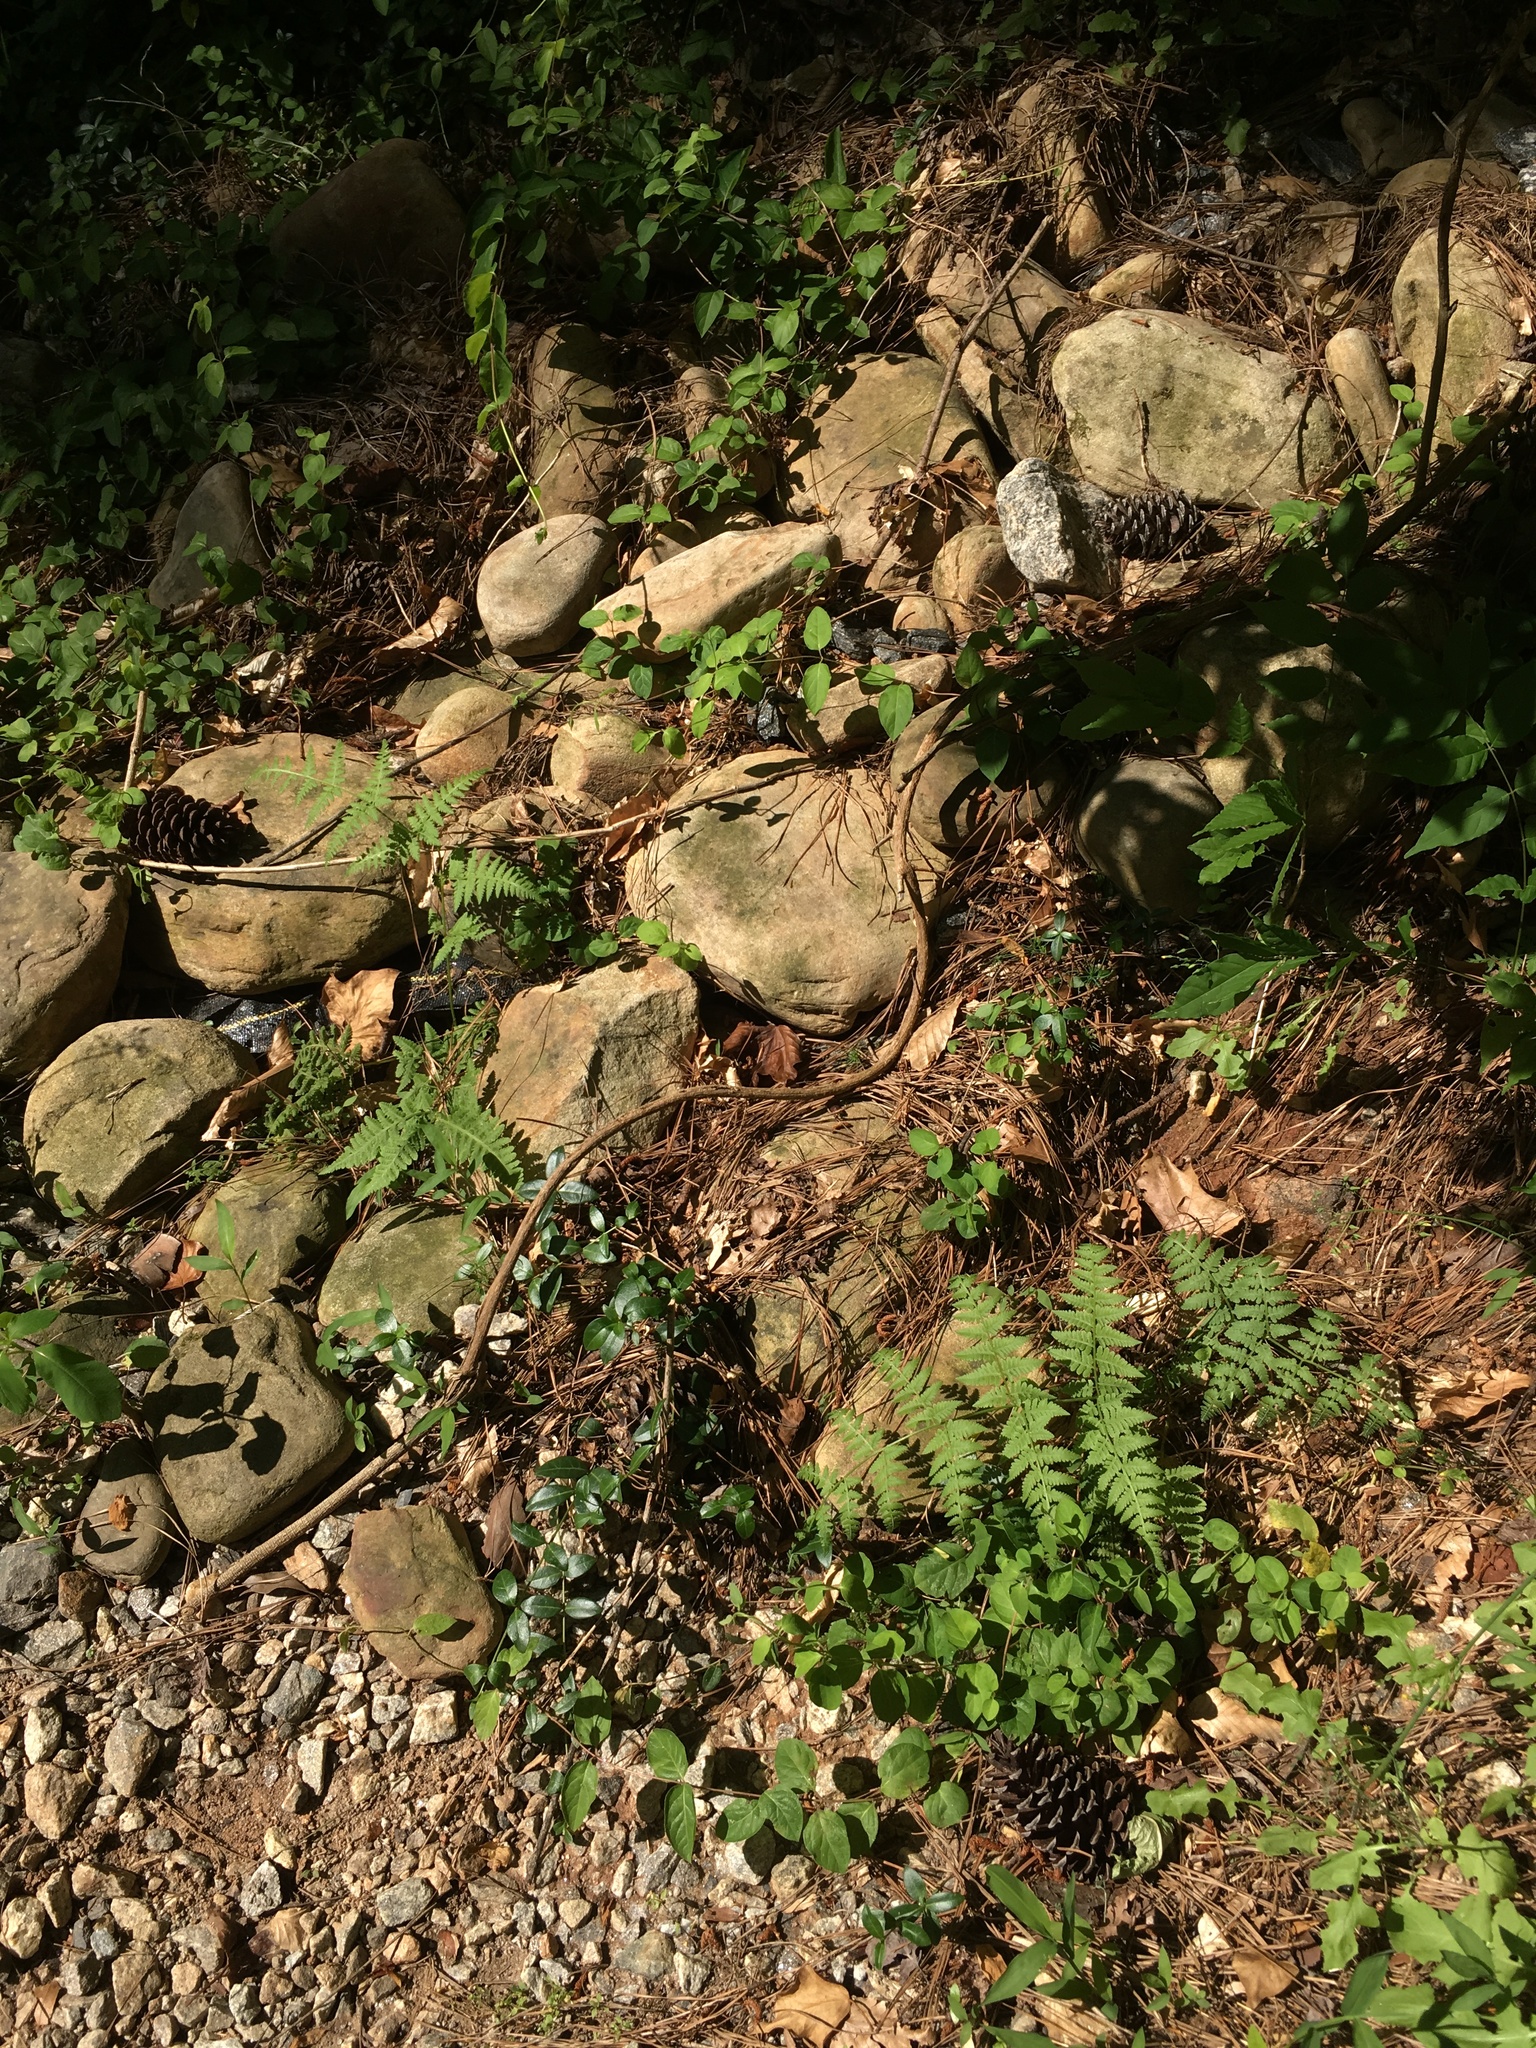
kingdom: Plantae
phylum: Tracheophyta
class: Polypodiopsida
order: Polypodiales
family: Thelypteridaceae
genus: Macrothelypteris
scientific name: Macrothelypteris torresiana
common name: Swordfern
